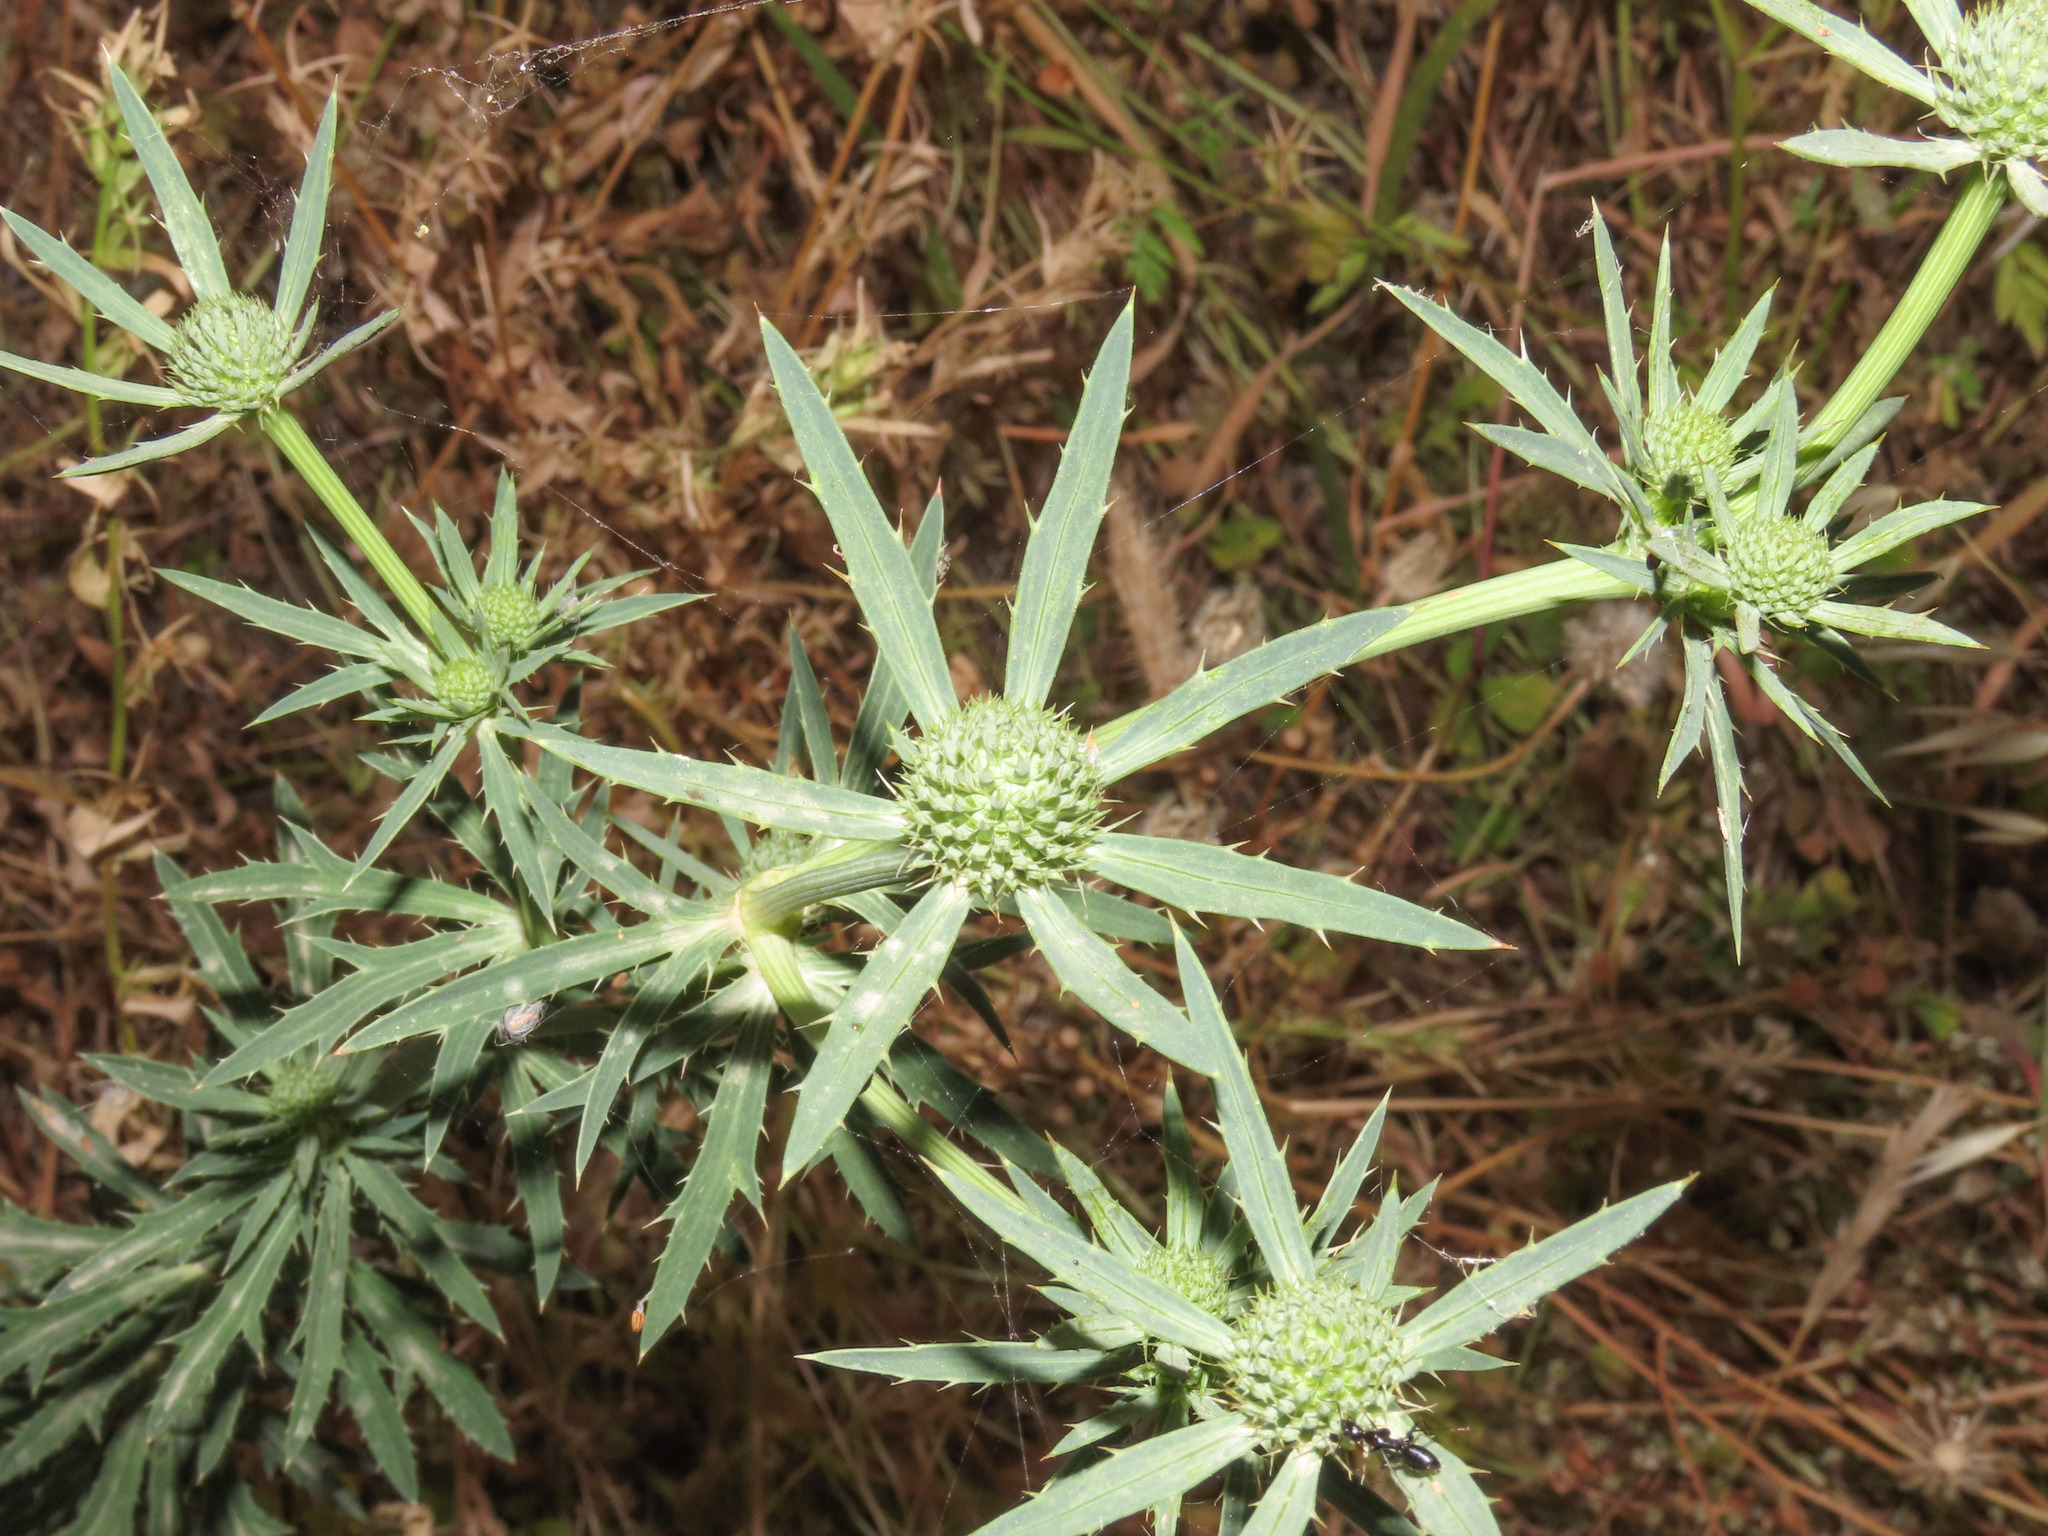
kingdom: Plantae
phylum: Tracheophyta
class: Magnoliopsida
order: Apiales
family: Apiaceae
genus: Eryngium
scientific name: Eryngium tricuspidatum
